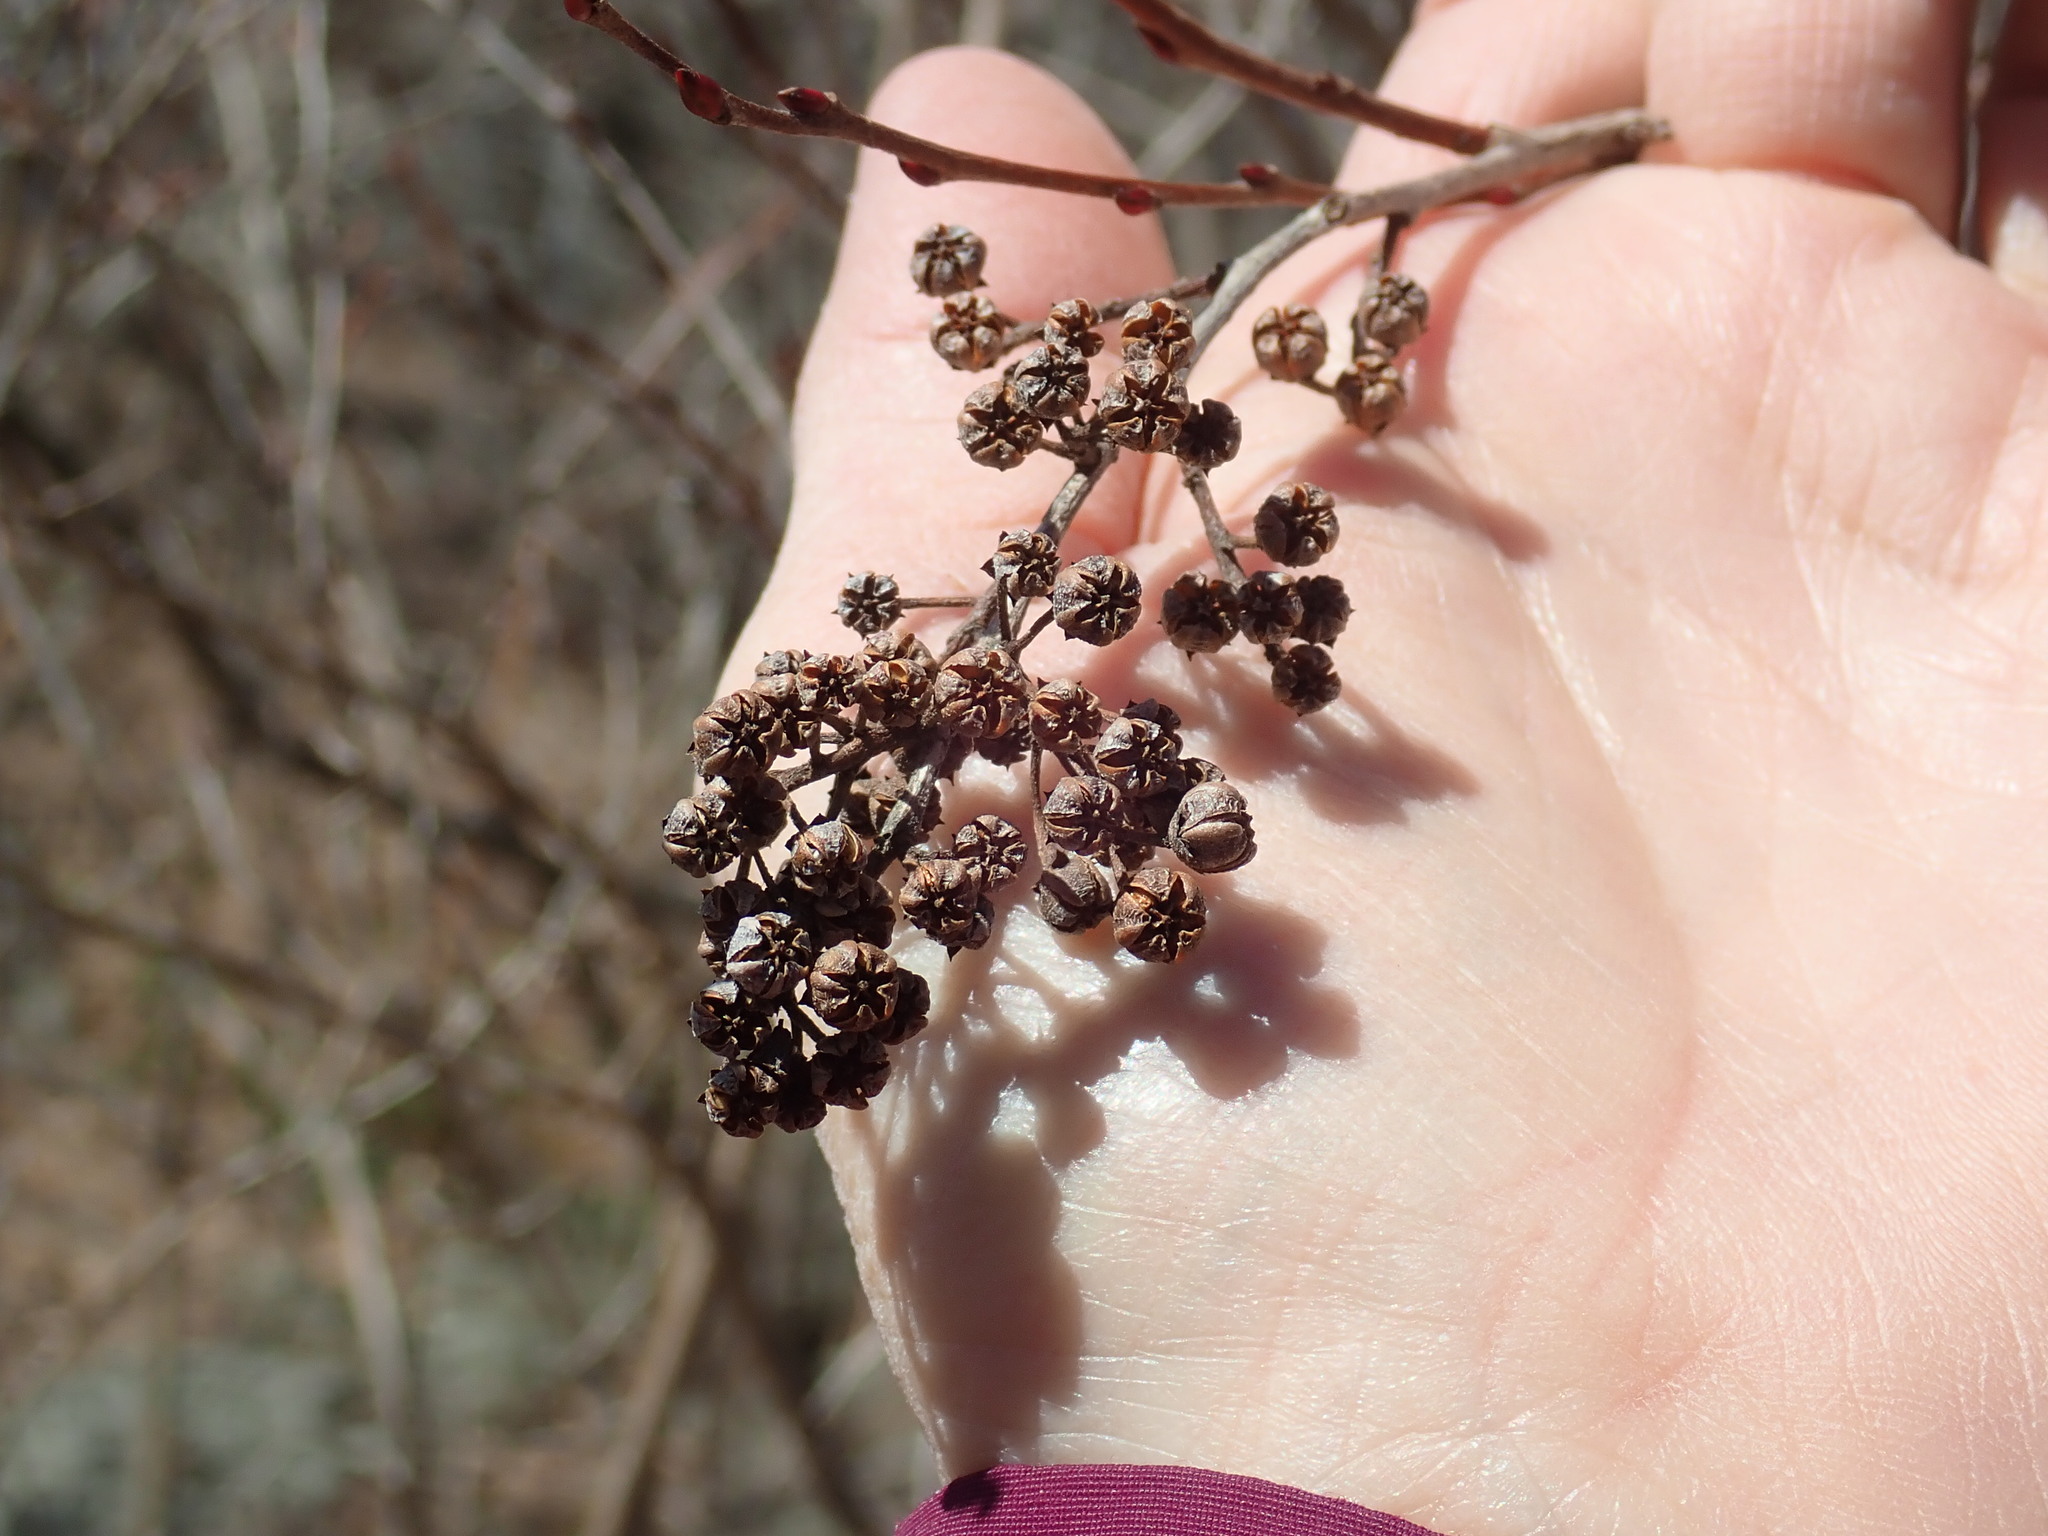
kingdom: Plantae
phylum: Tracheophyta
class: Magnoliopsida
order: Ericales
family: Ericaceae
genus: Lyonia
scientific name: Lyonia ligustrina
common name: Maleberry
